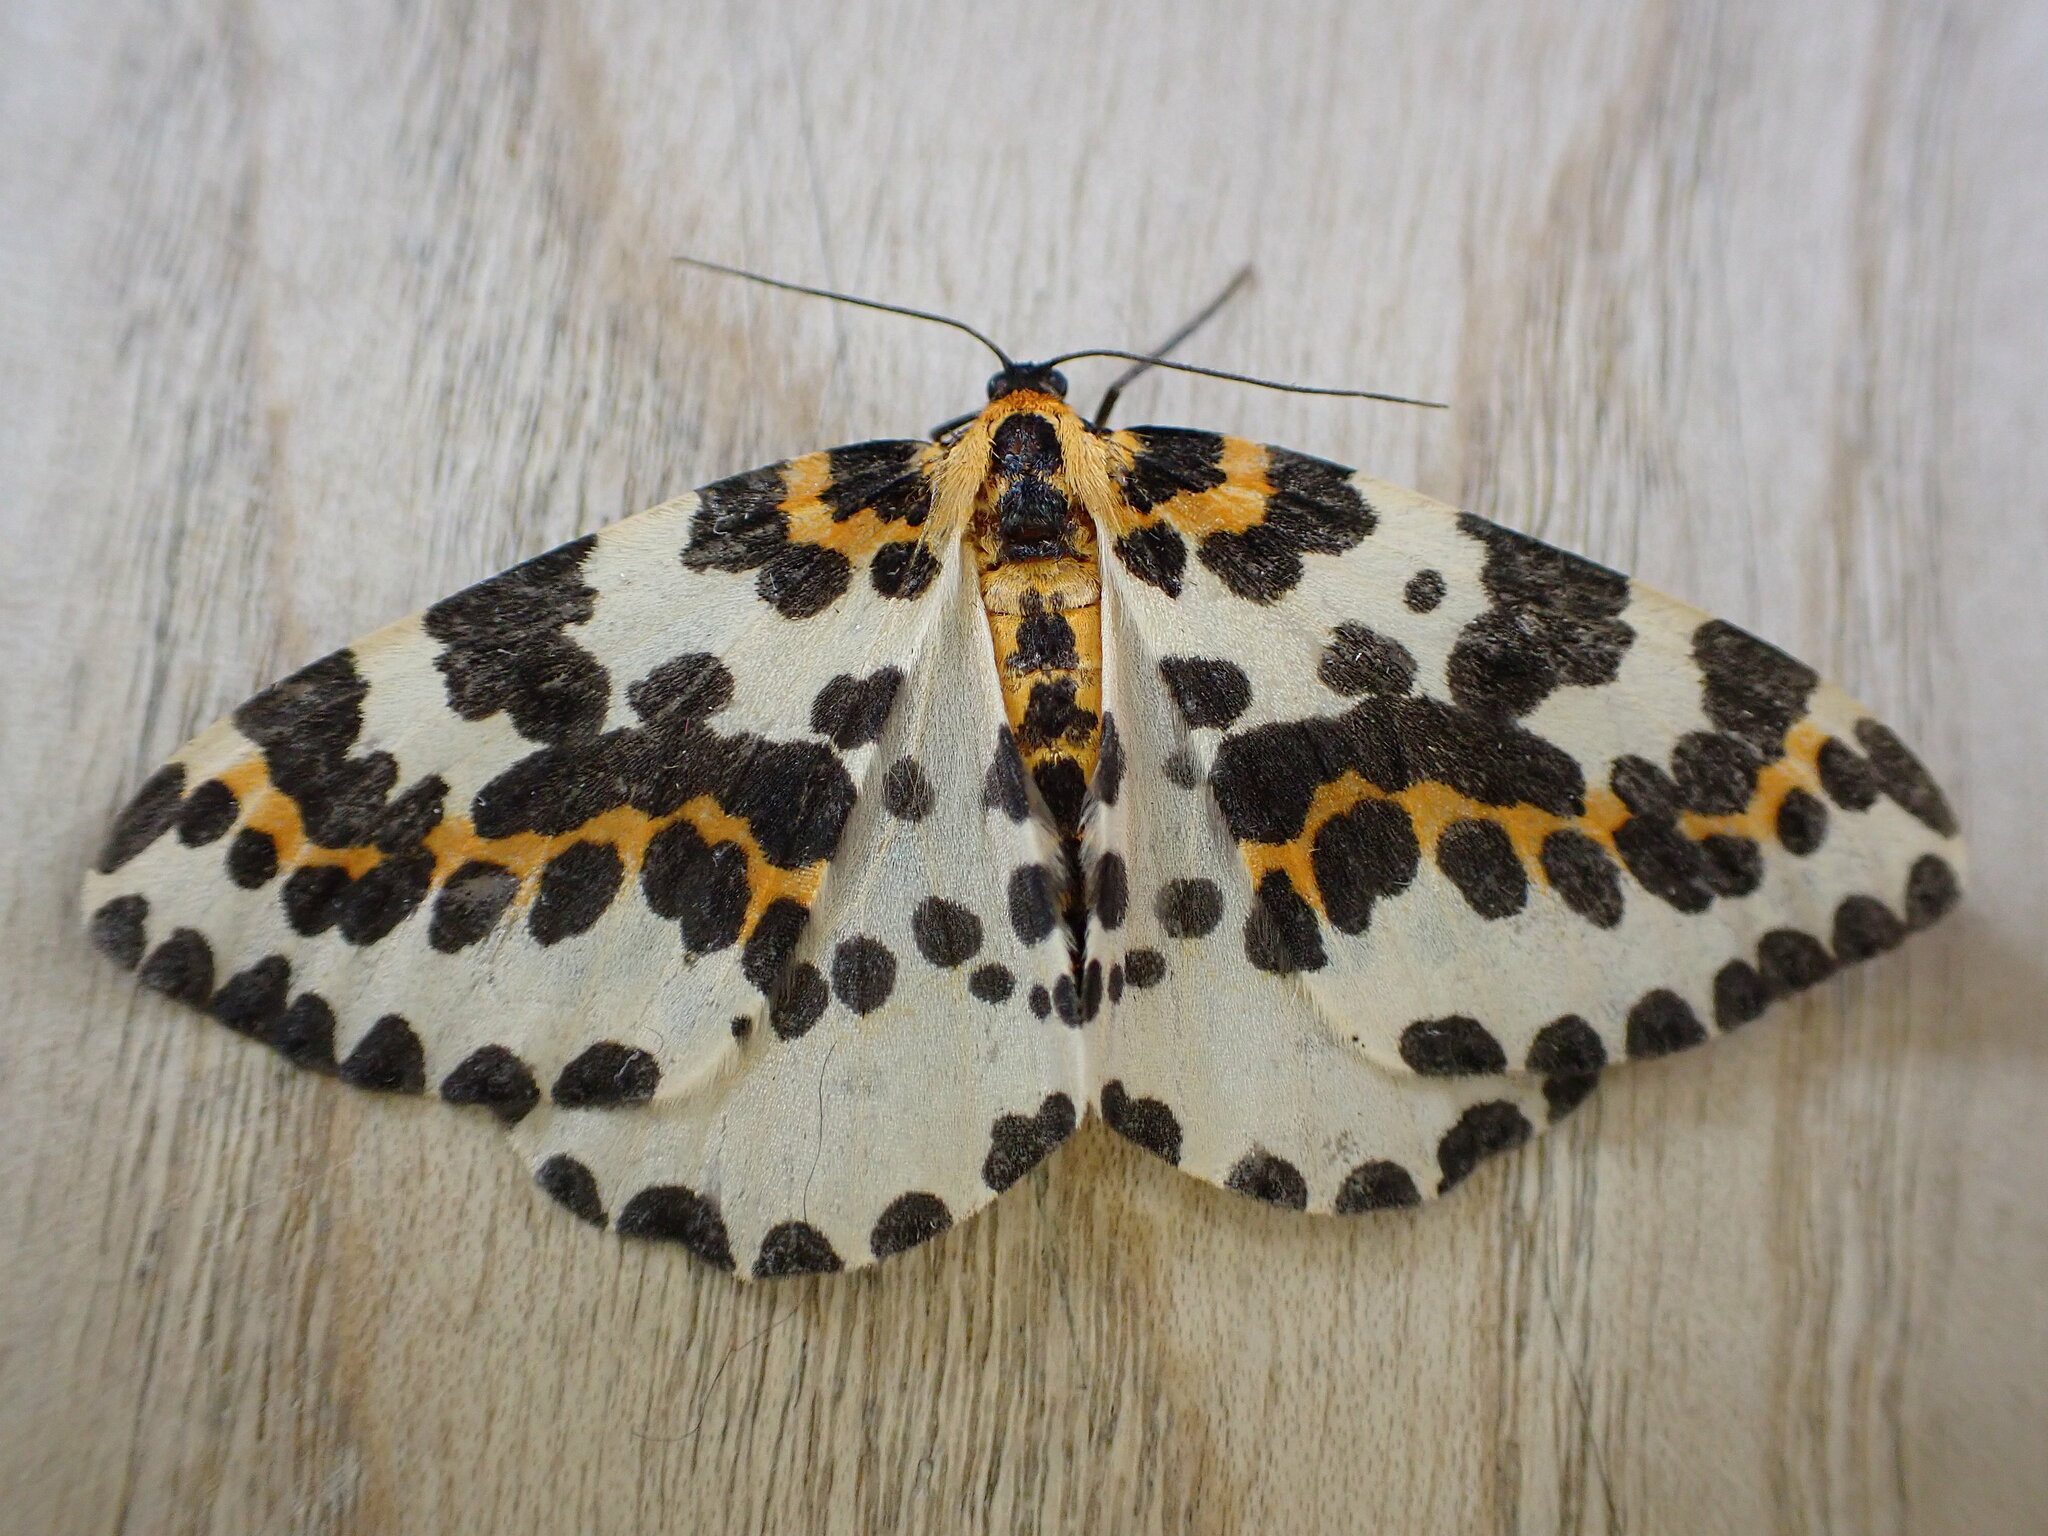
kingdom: Animalia
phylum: Arthropoda
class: Insecta
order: Lepidoptera
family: Geometridae
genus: Abraxas
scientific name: Abraxas grossulariata
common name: Magpie
